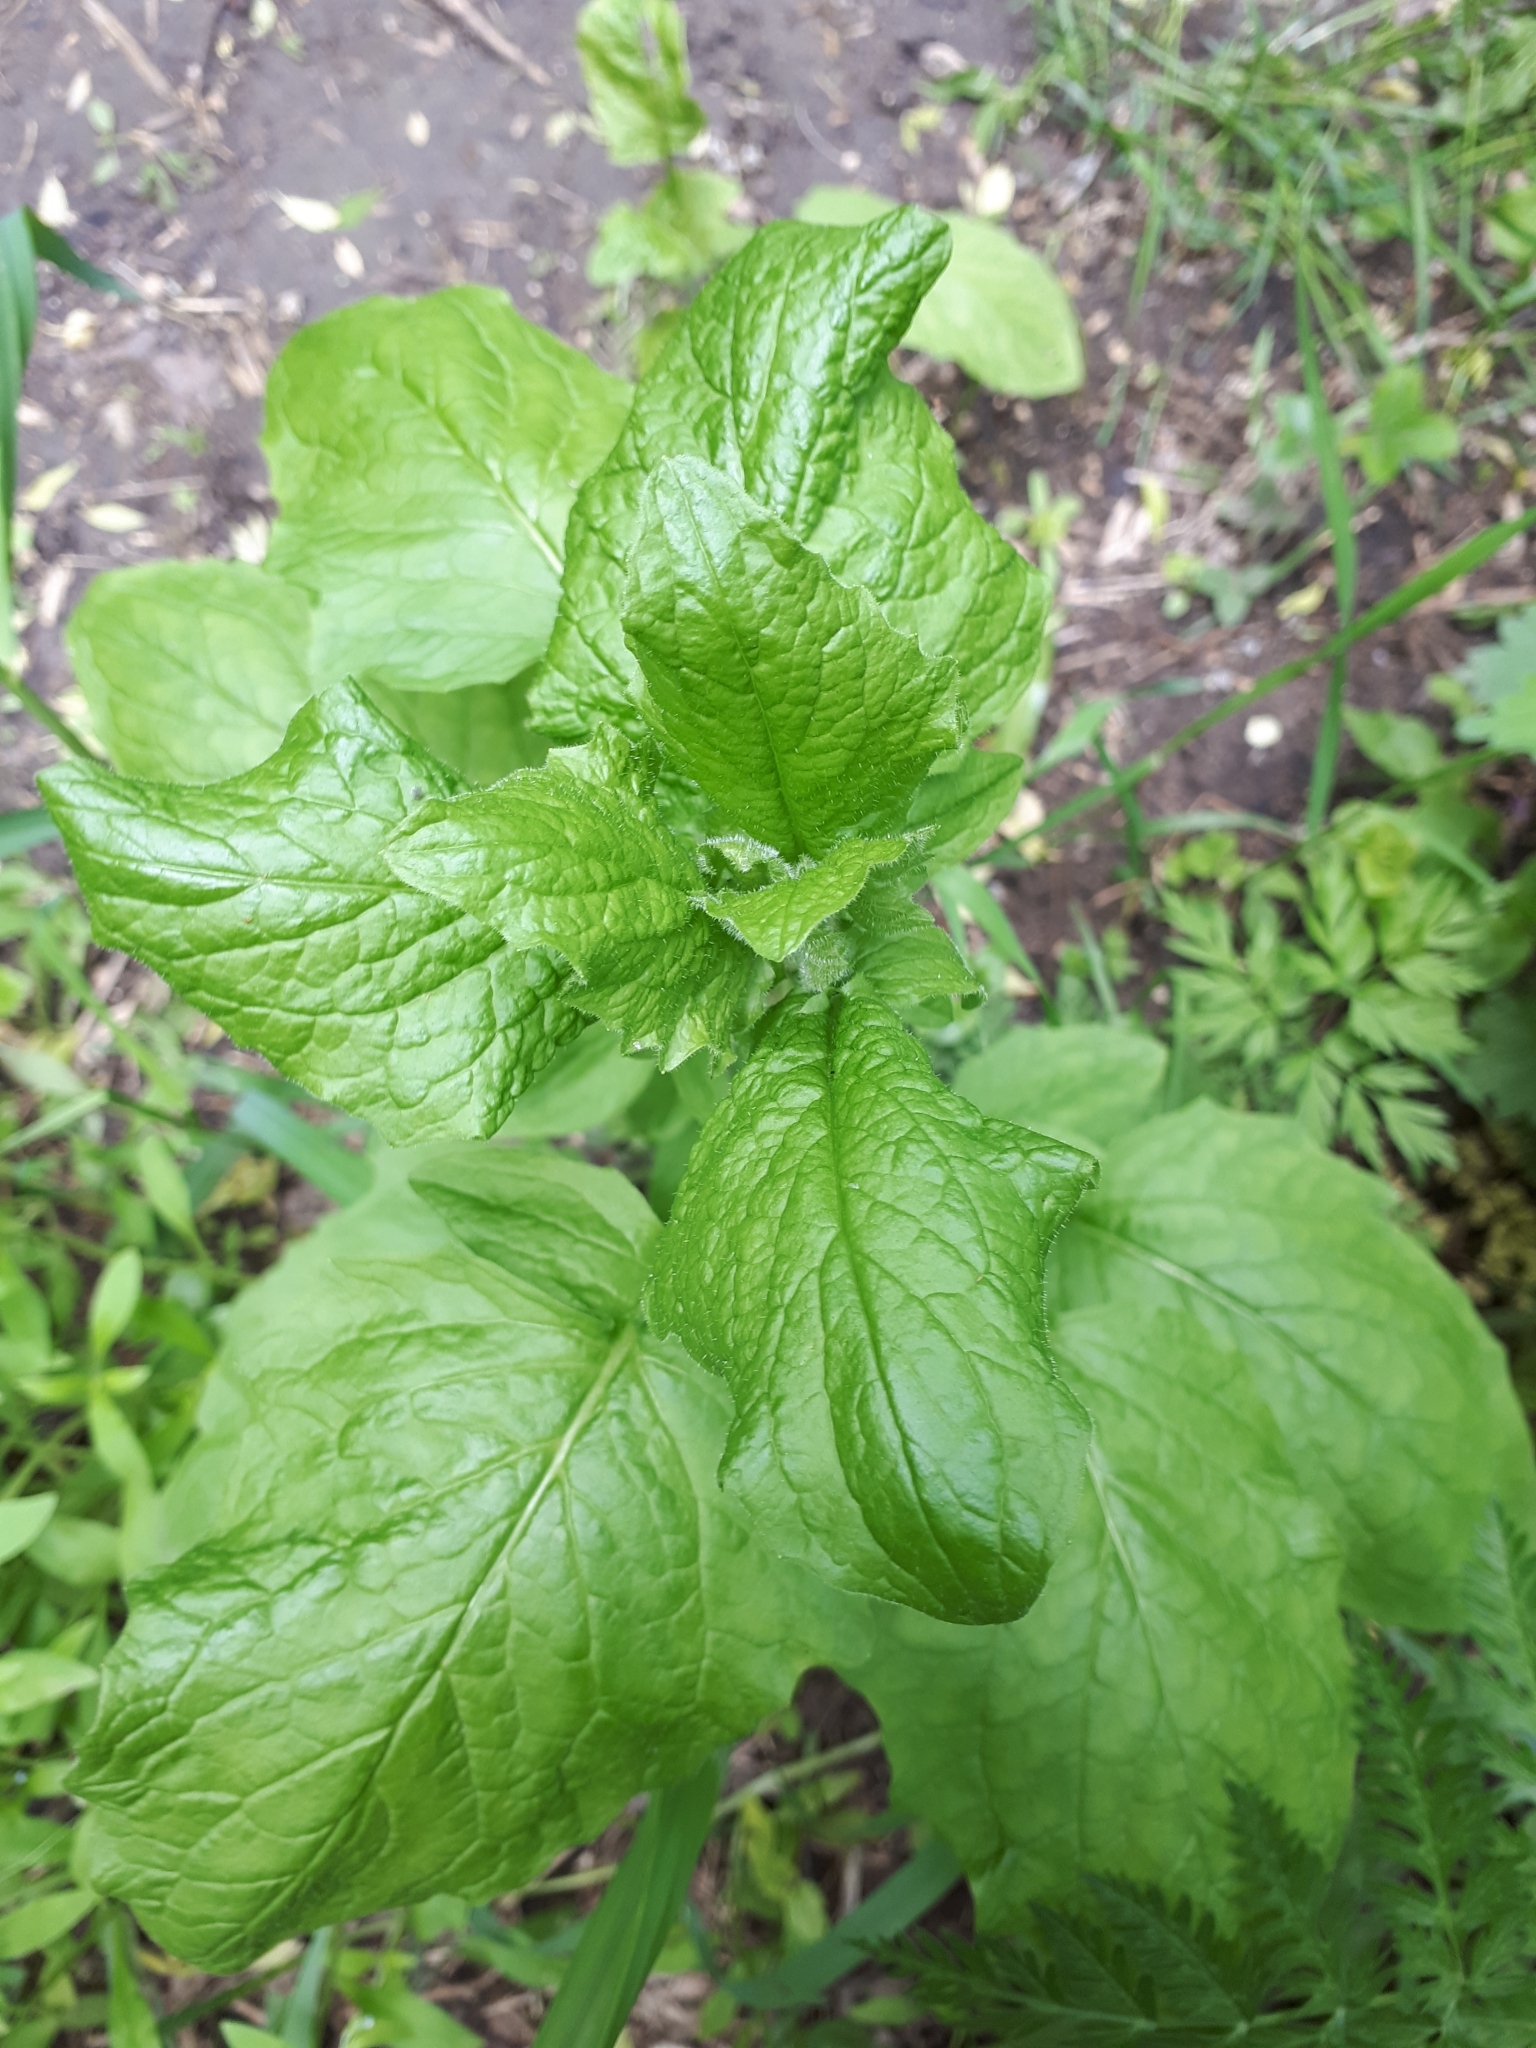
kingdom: Plantae
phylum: Tracheophyta
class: Magnoliopsida
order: Asterales
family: Asteraceae
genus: Lapsana
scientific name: Lapsana communis
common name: Nipplewort
